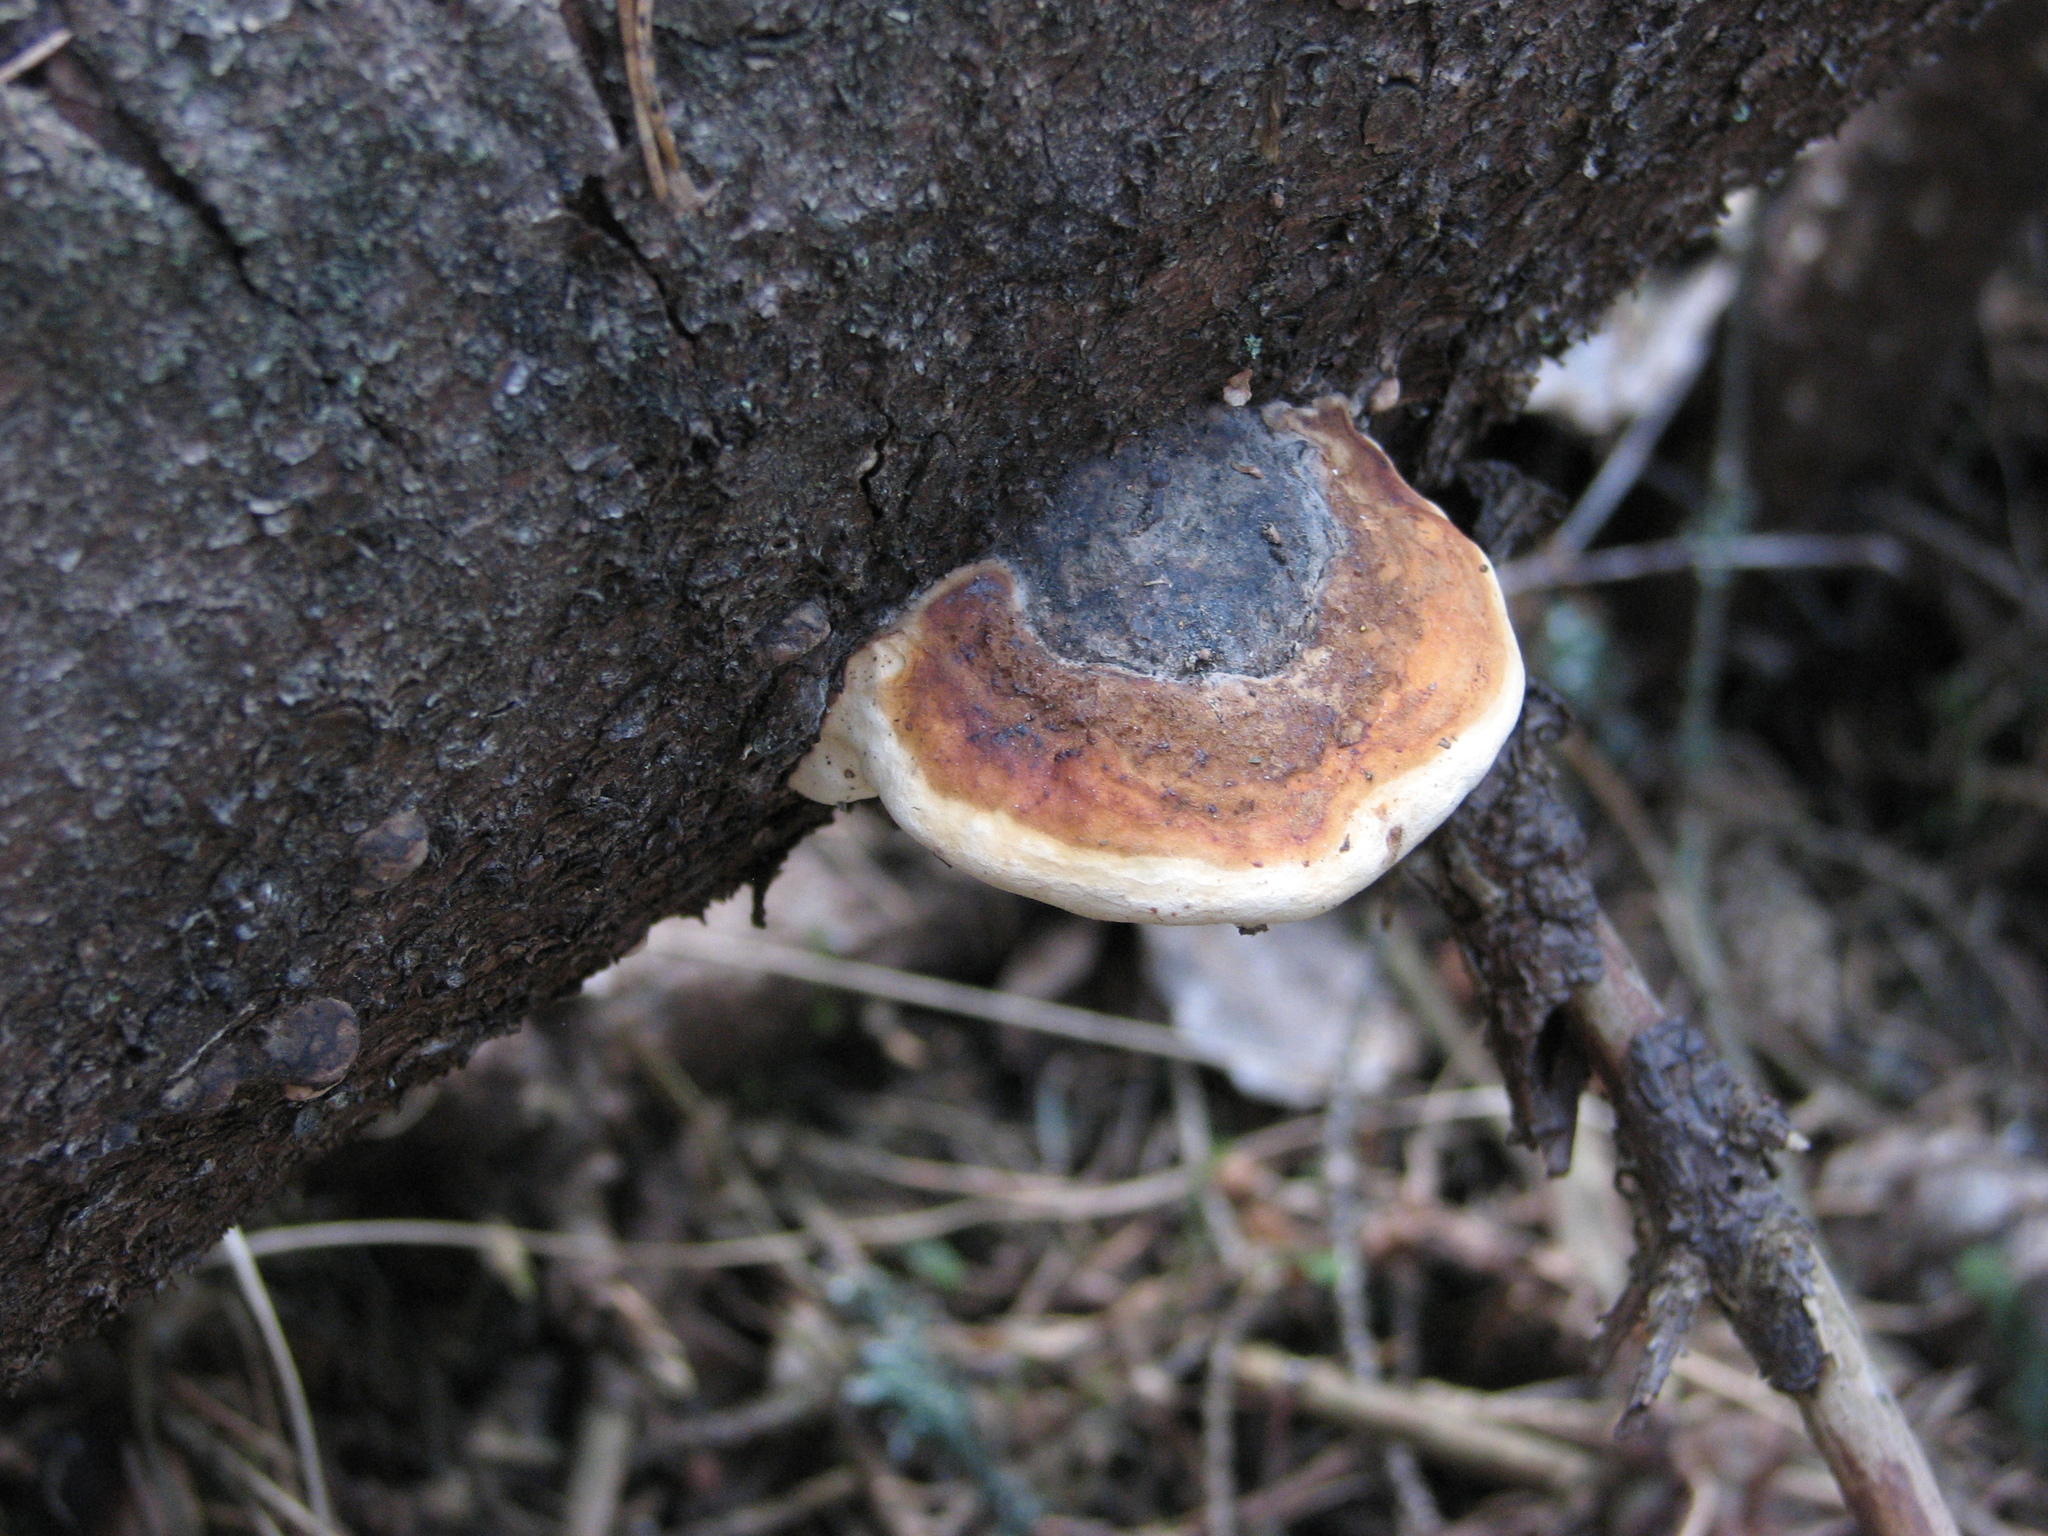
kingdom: Fungi
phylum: Basidiomycota
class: Agaricomycetes
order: Polyporales
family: Fomitopsidaceae
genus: Fomitopsis
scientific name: Fomitopsis pinicola
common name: Red-belted bracket
